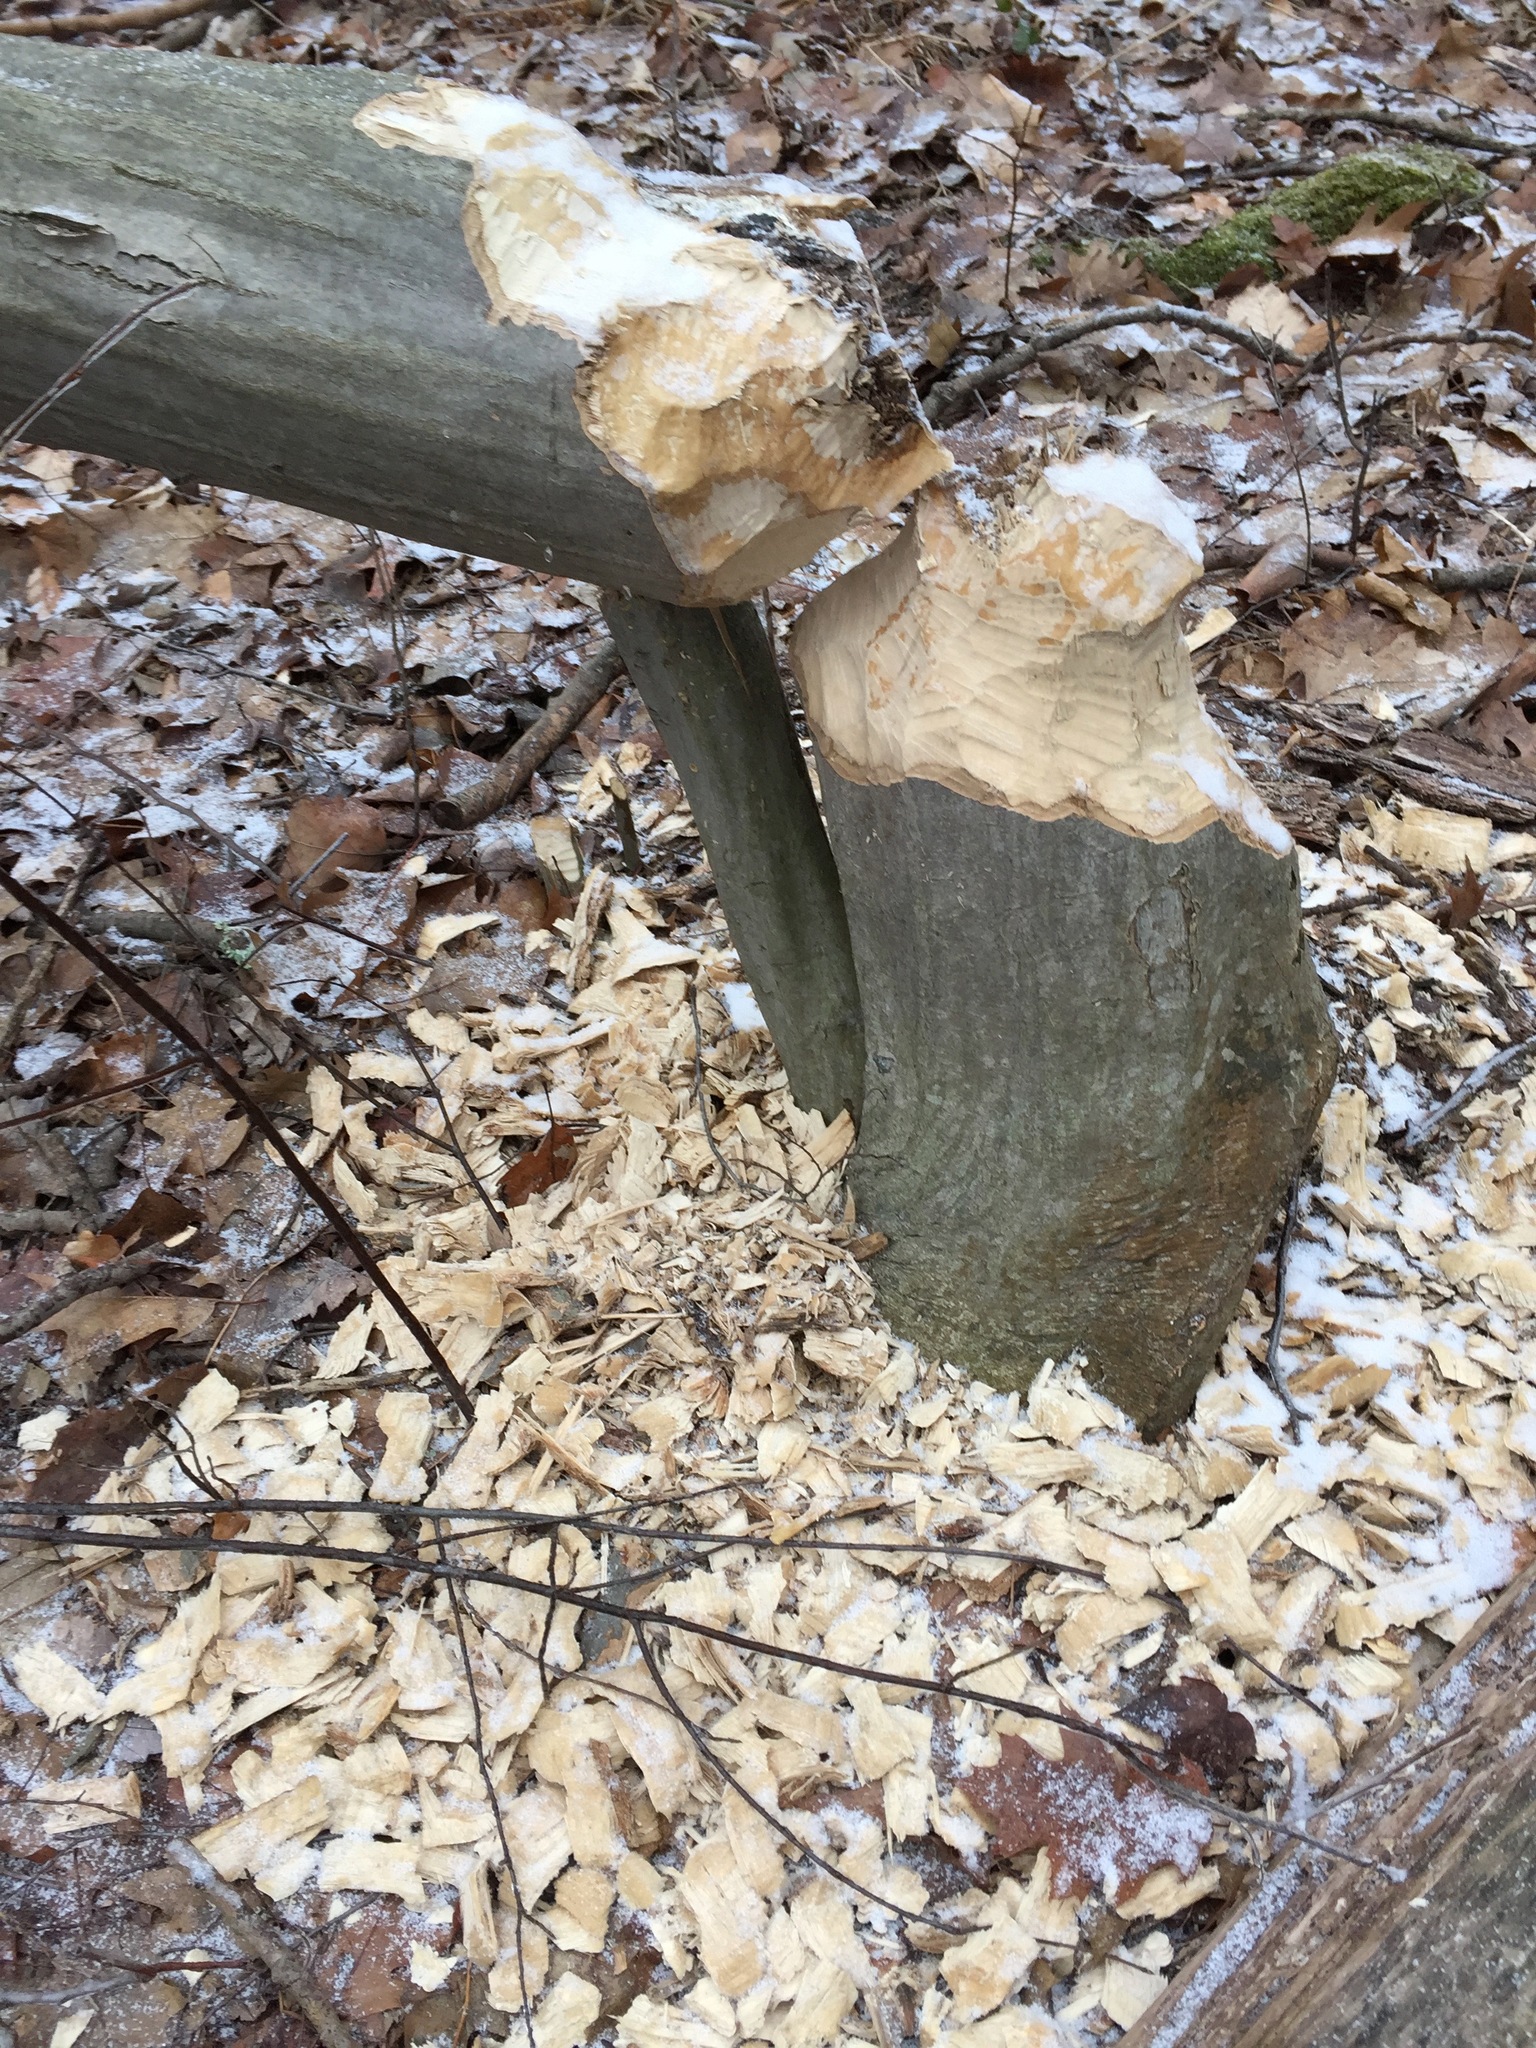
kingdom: Animalia
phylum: Chordata
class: Mammalia
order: Rodentia
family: Castoridae
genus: Castor
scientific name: Castor canadensis
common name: American beaver
